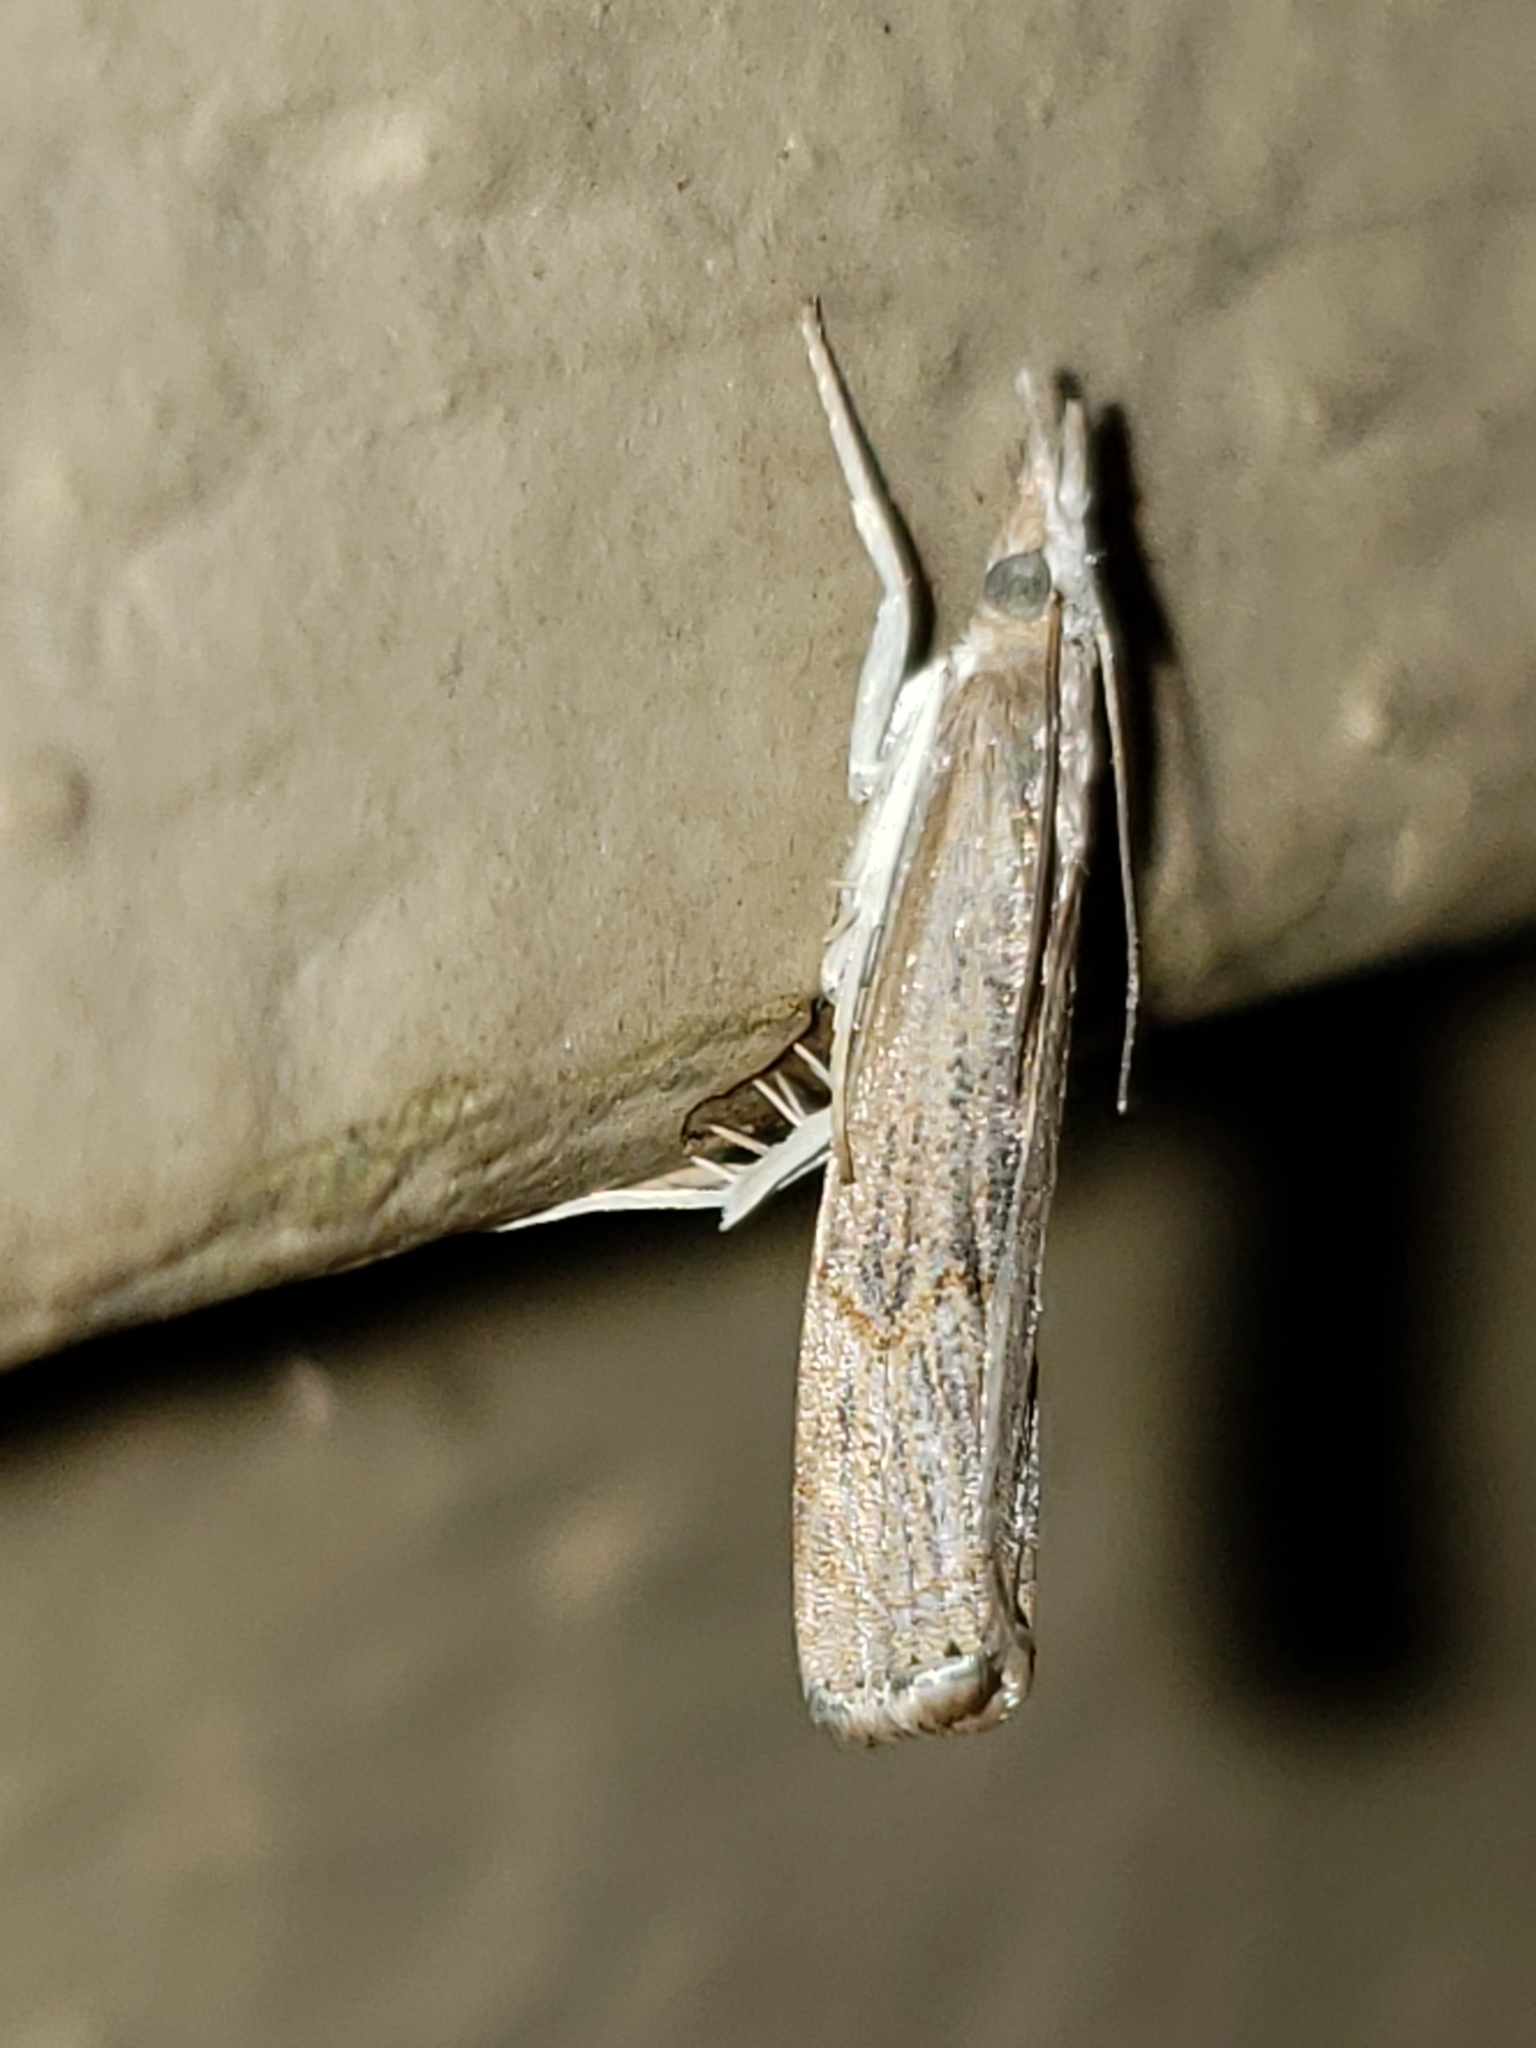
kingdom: Animalia
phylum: Arthropoda
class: Insecta
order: Lepidoptera
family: Crambidae
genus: Parapediasia
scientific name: Parapediasia teterellus
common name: Bluegrass webworm moth
